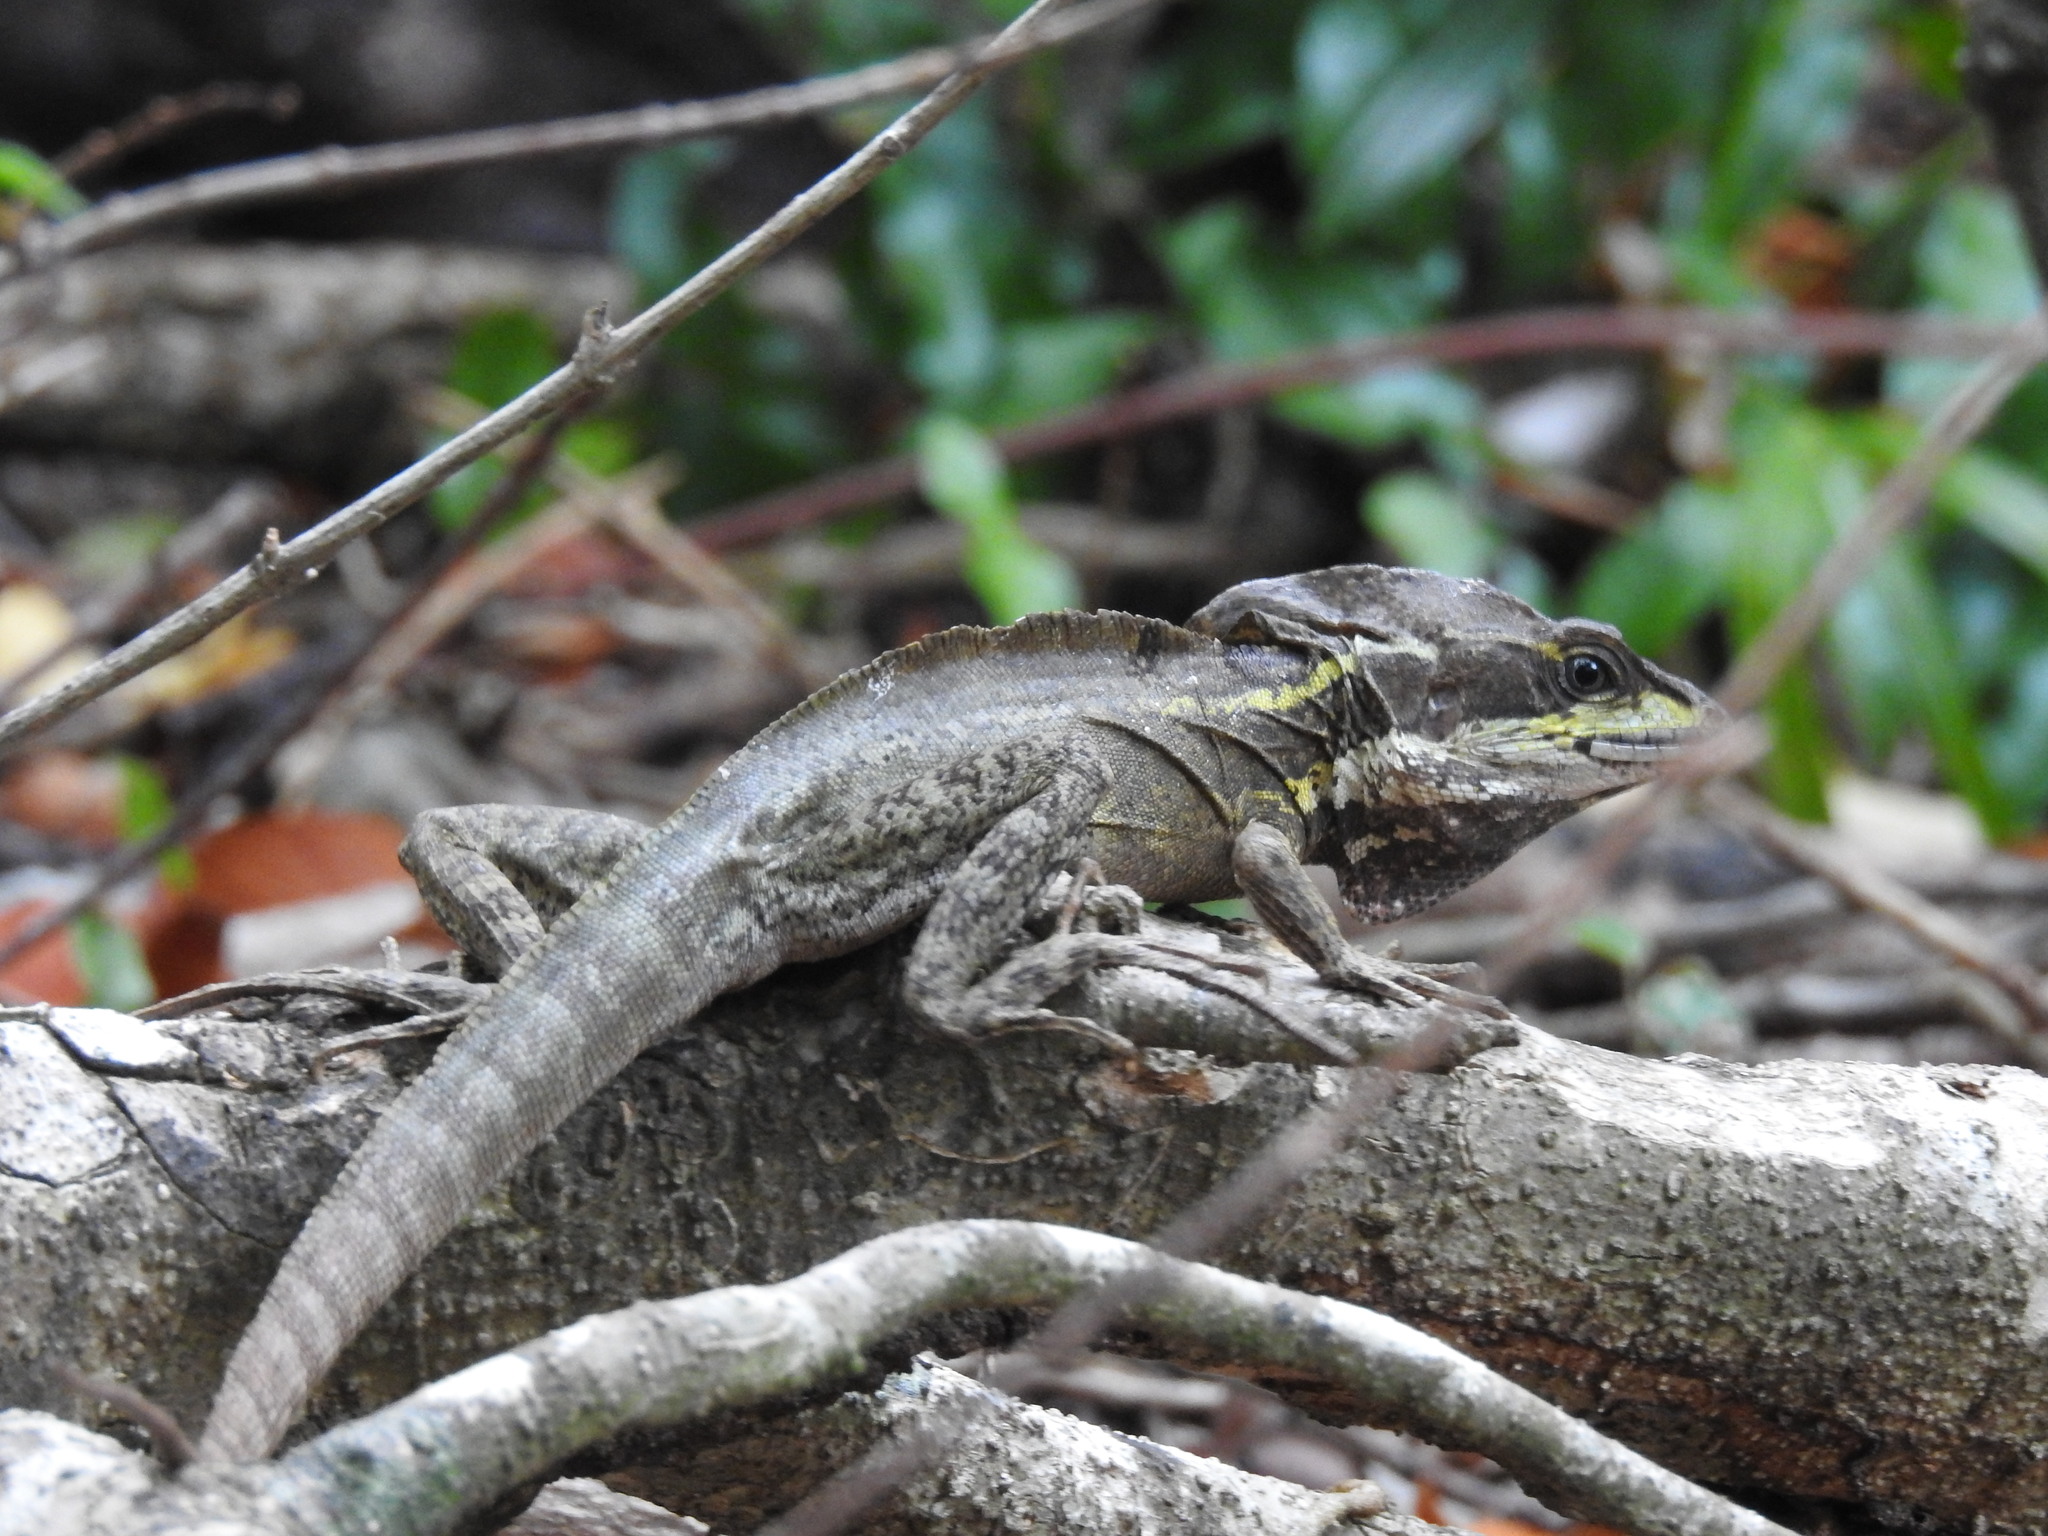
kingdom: Animalia
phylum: Chordata
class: Squamata
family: Corytophanidae
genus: Basiliscus
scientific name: Basiliscus vittatus
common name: Brown basilisk
